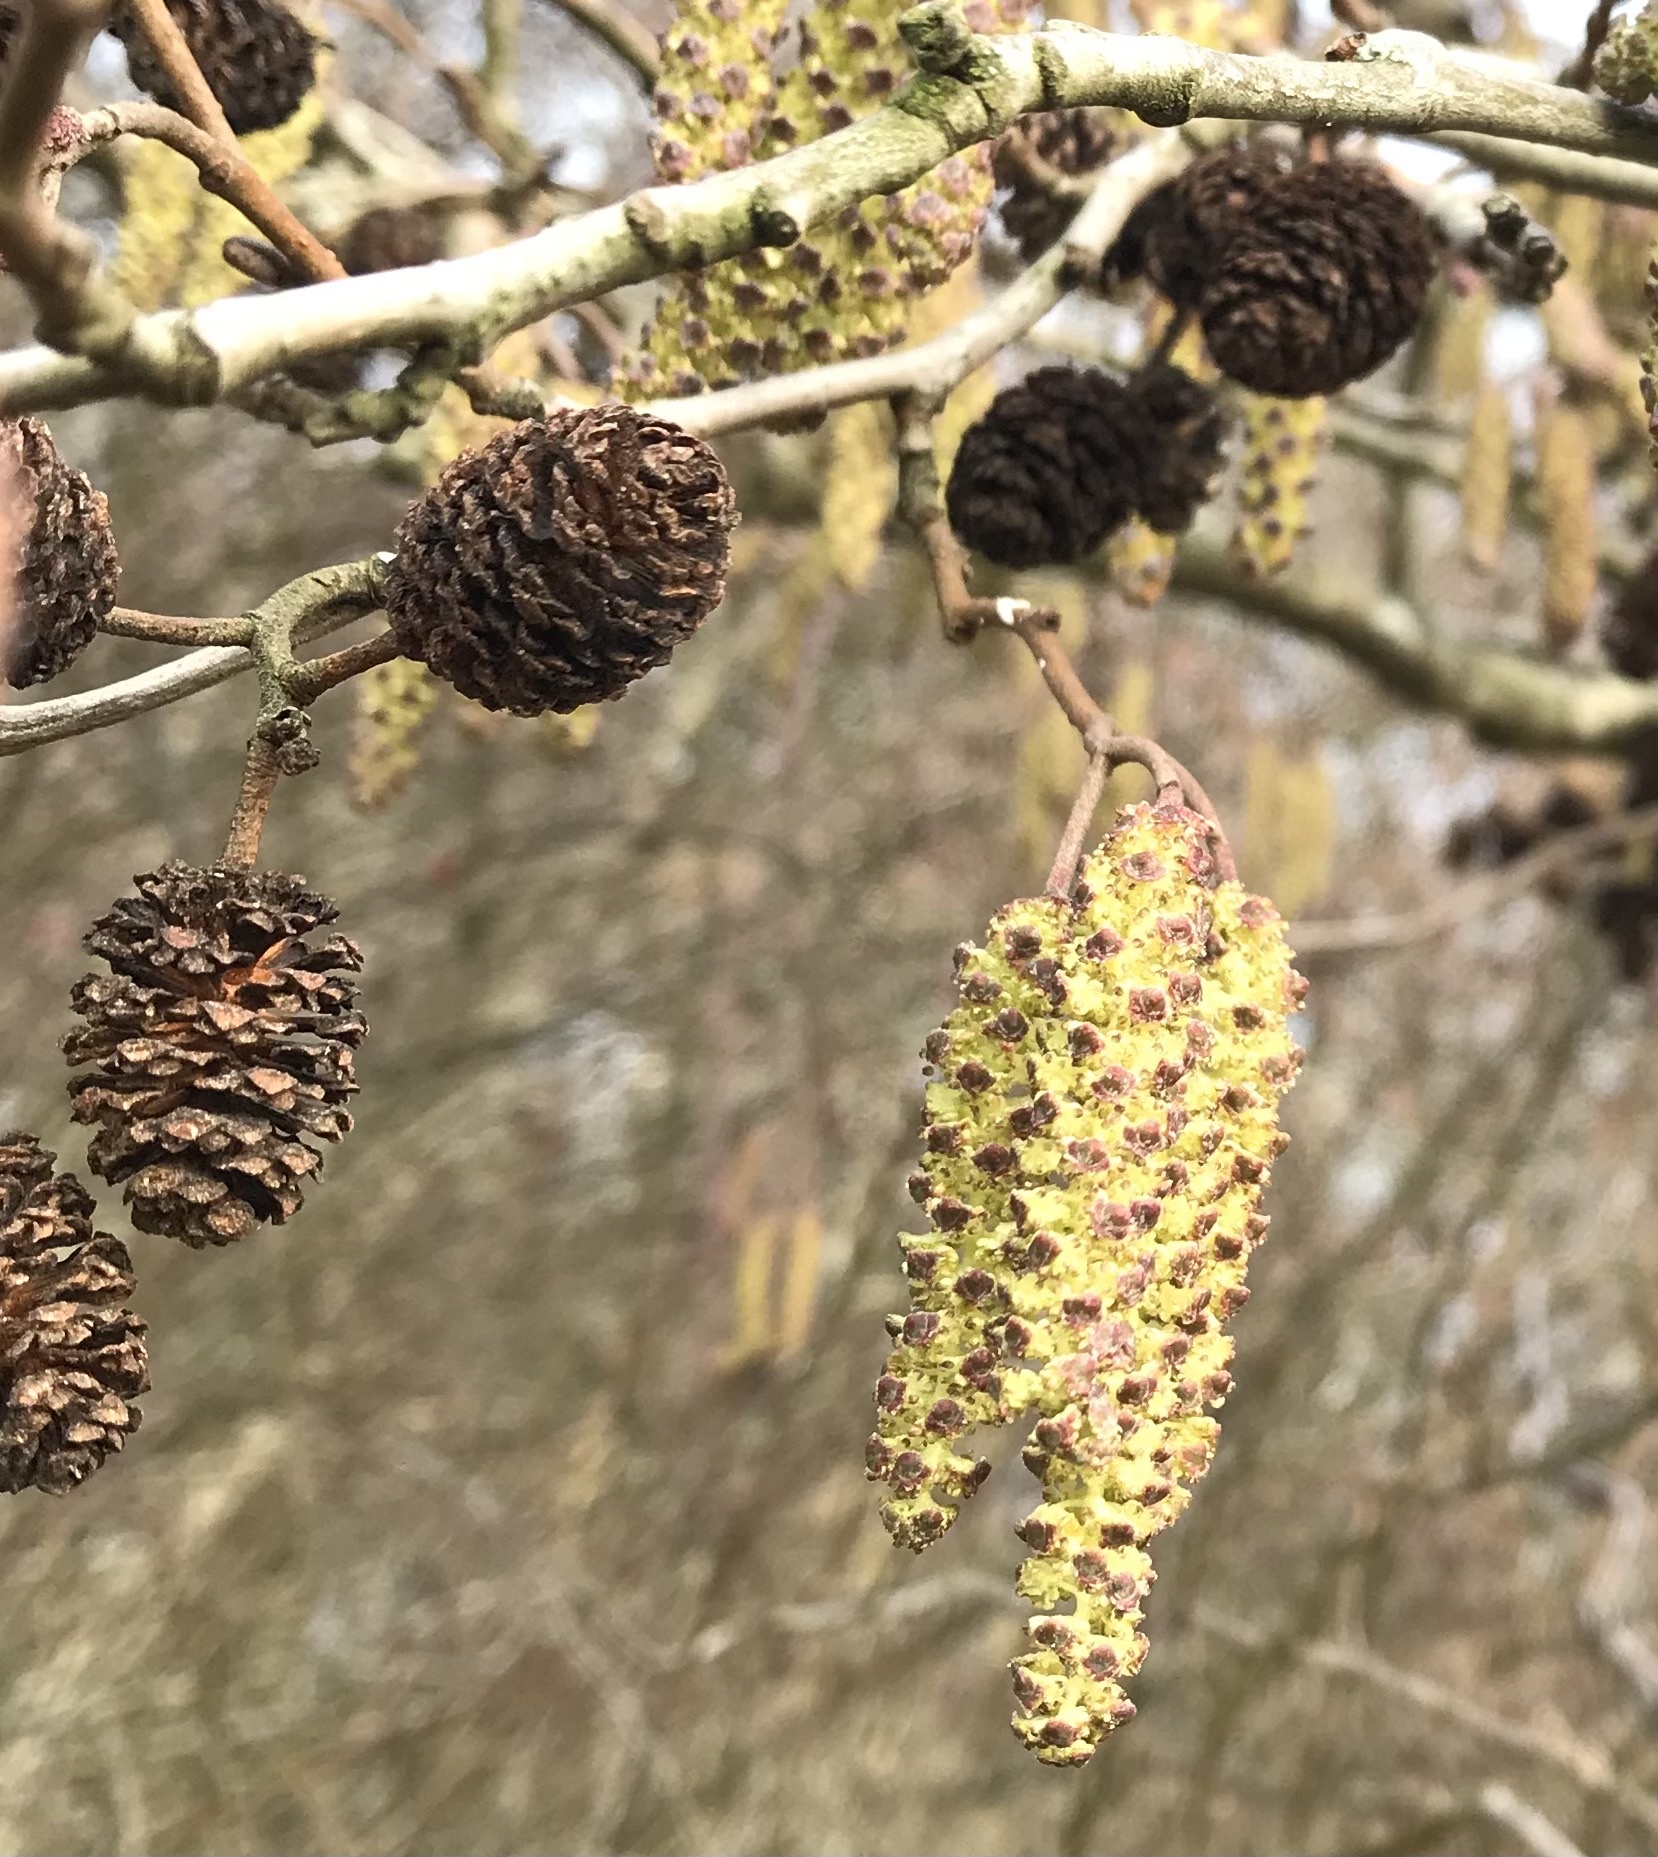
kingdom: Plantae
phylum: Tracheophyta
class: Magnoliopsida
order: Fagales
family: Betulaceae
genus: Alnus
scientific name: Alnus glutinosa
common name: Black alder
